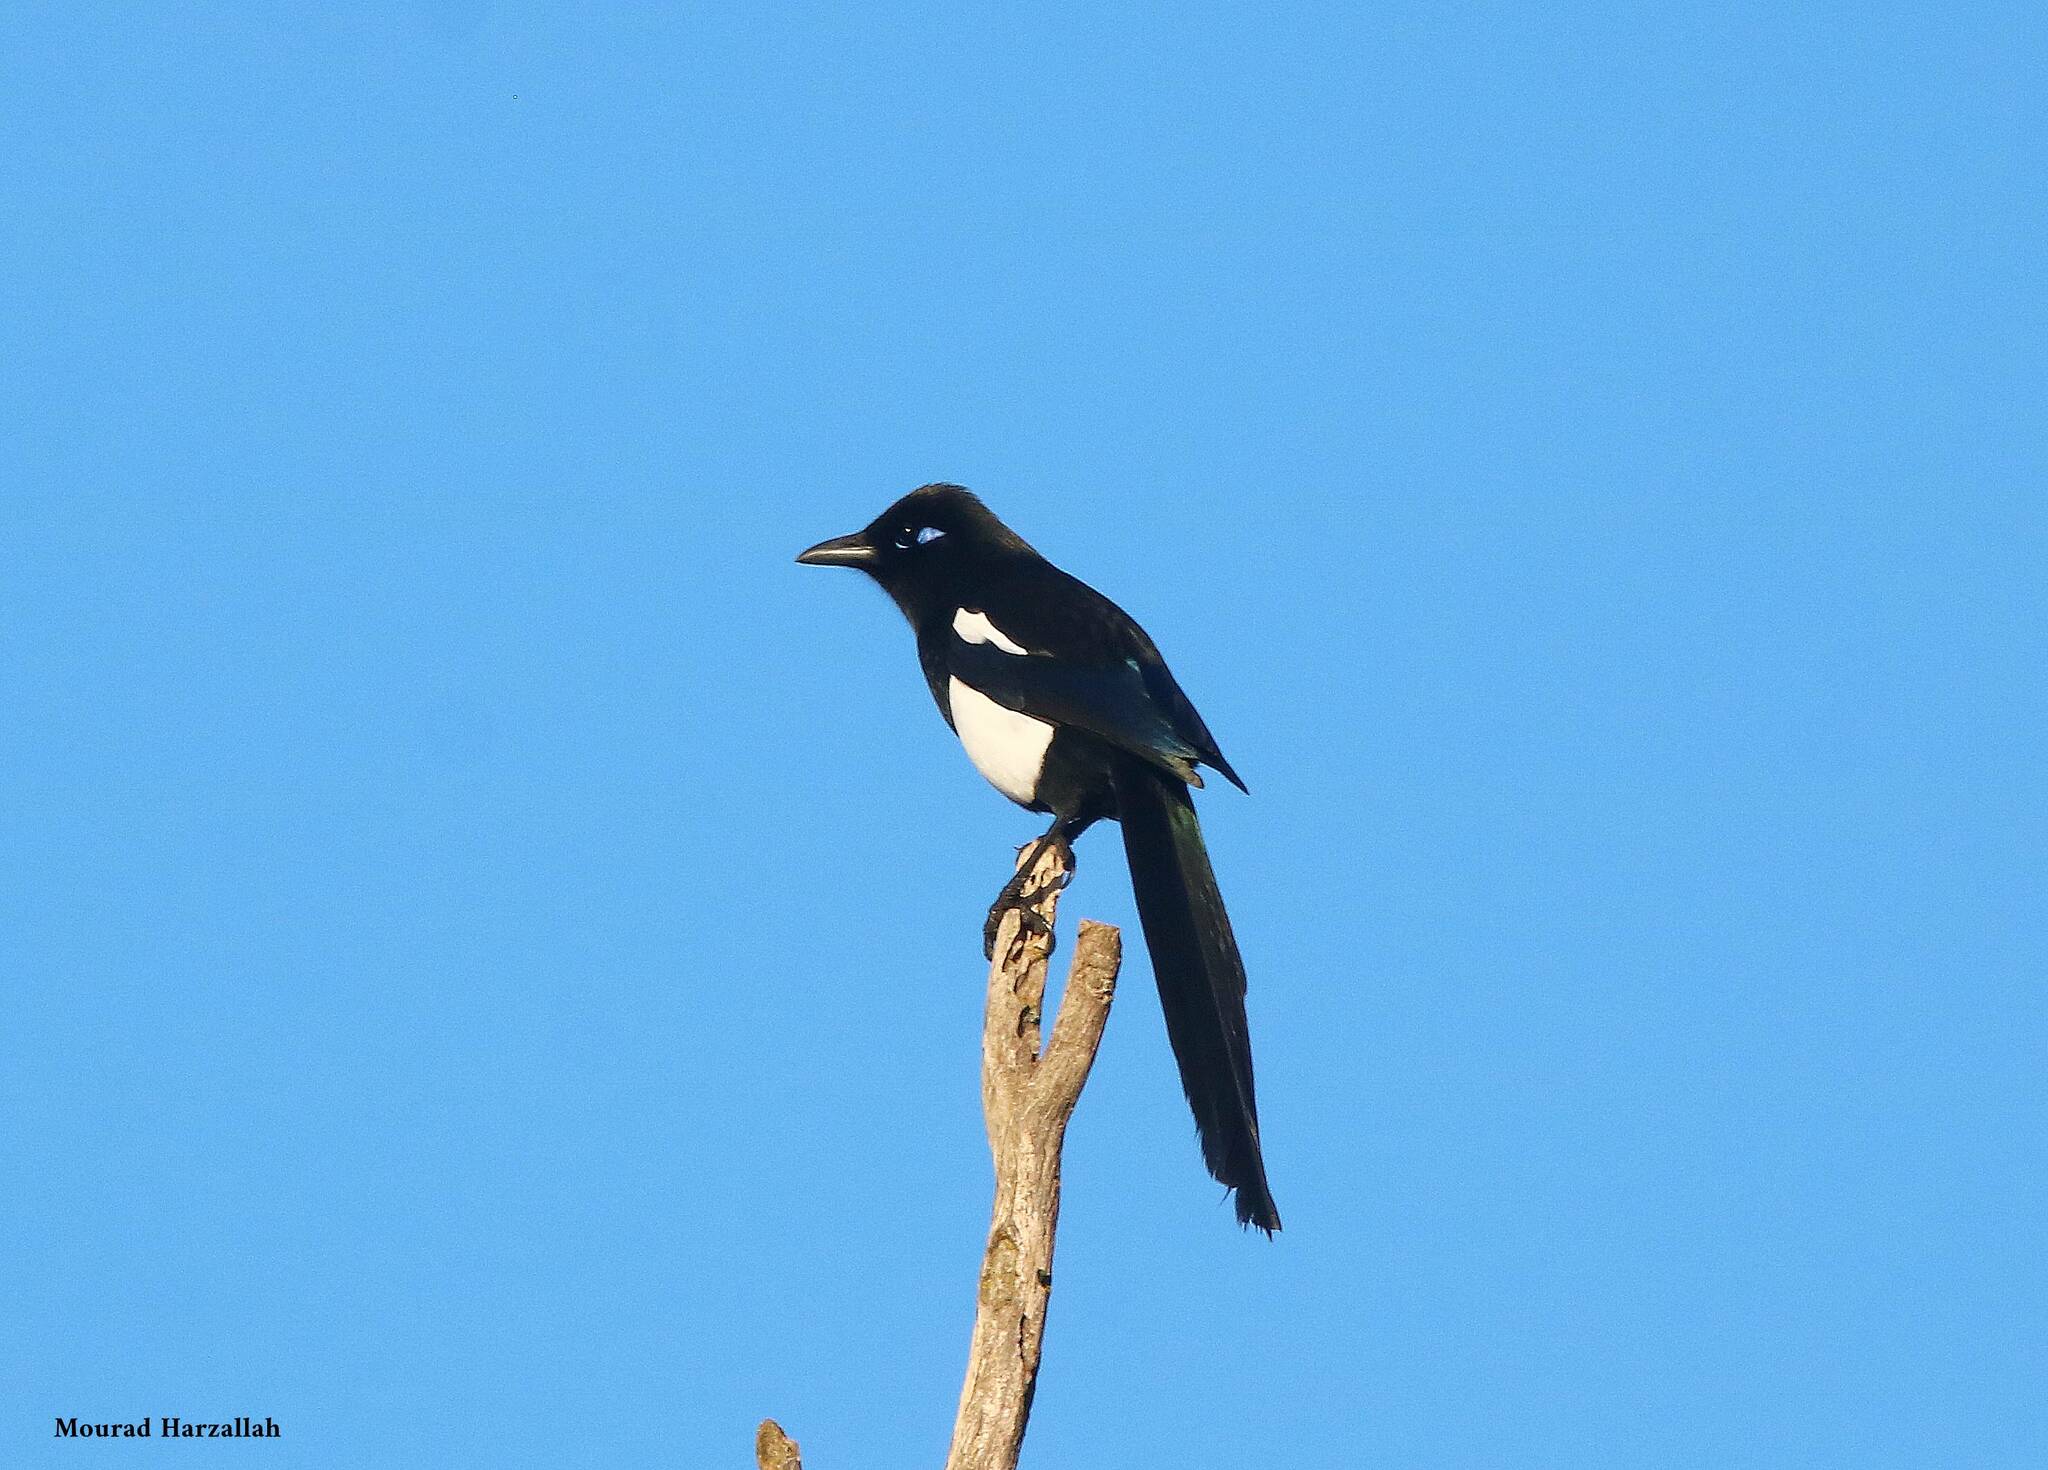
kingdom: Animalia
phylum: Chordata
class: Aves
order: Passeriformes
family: Corvidae
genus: Pica
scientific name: Pica mauritanica
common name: Maghreb magpie
